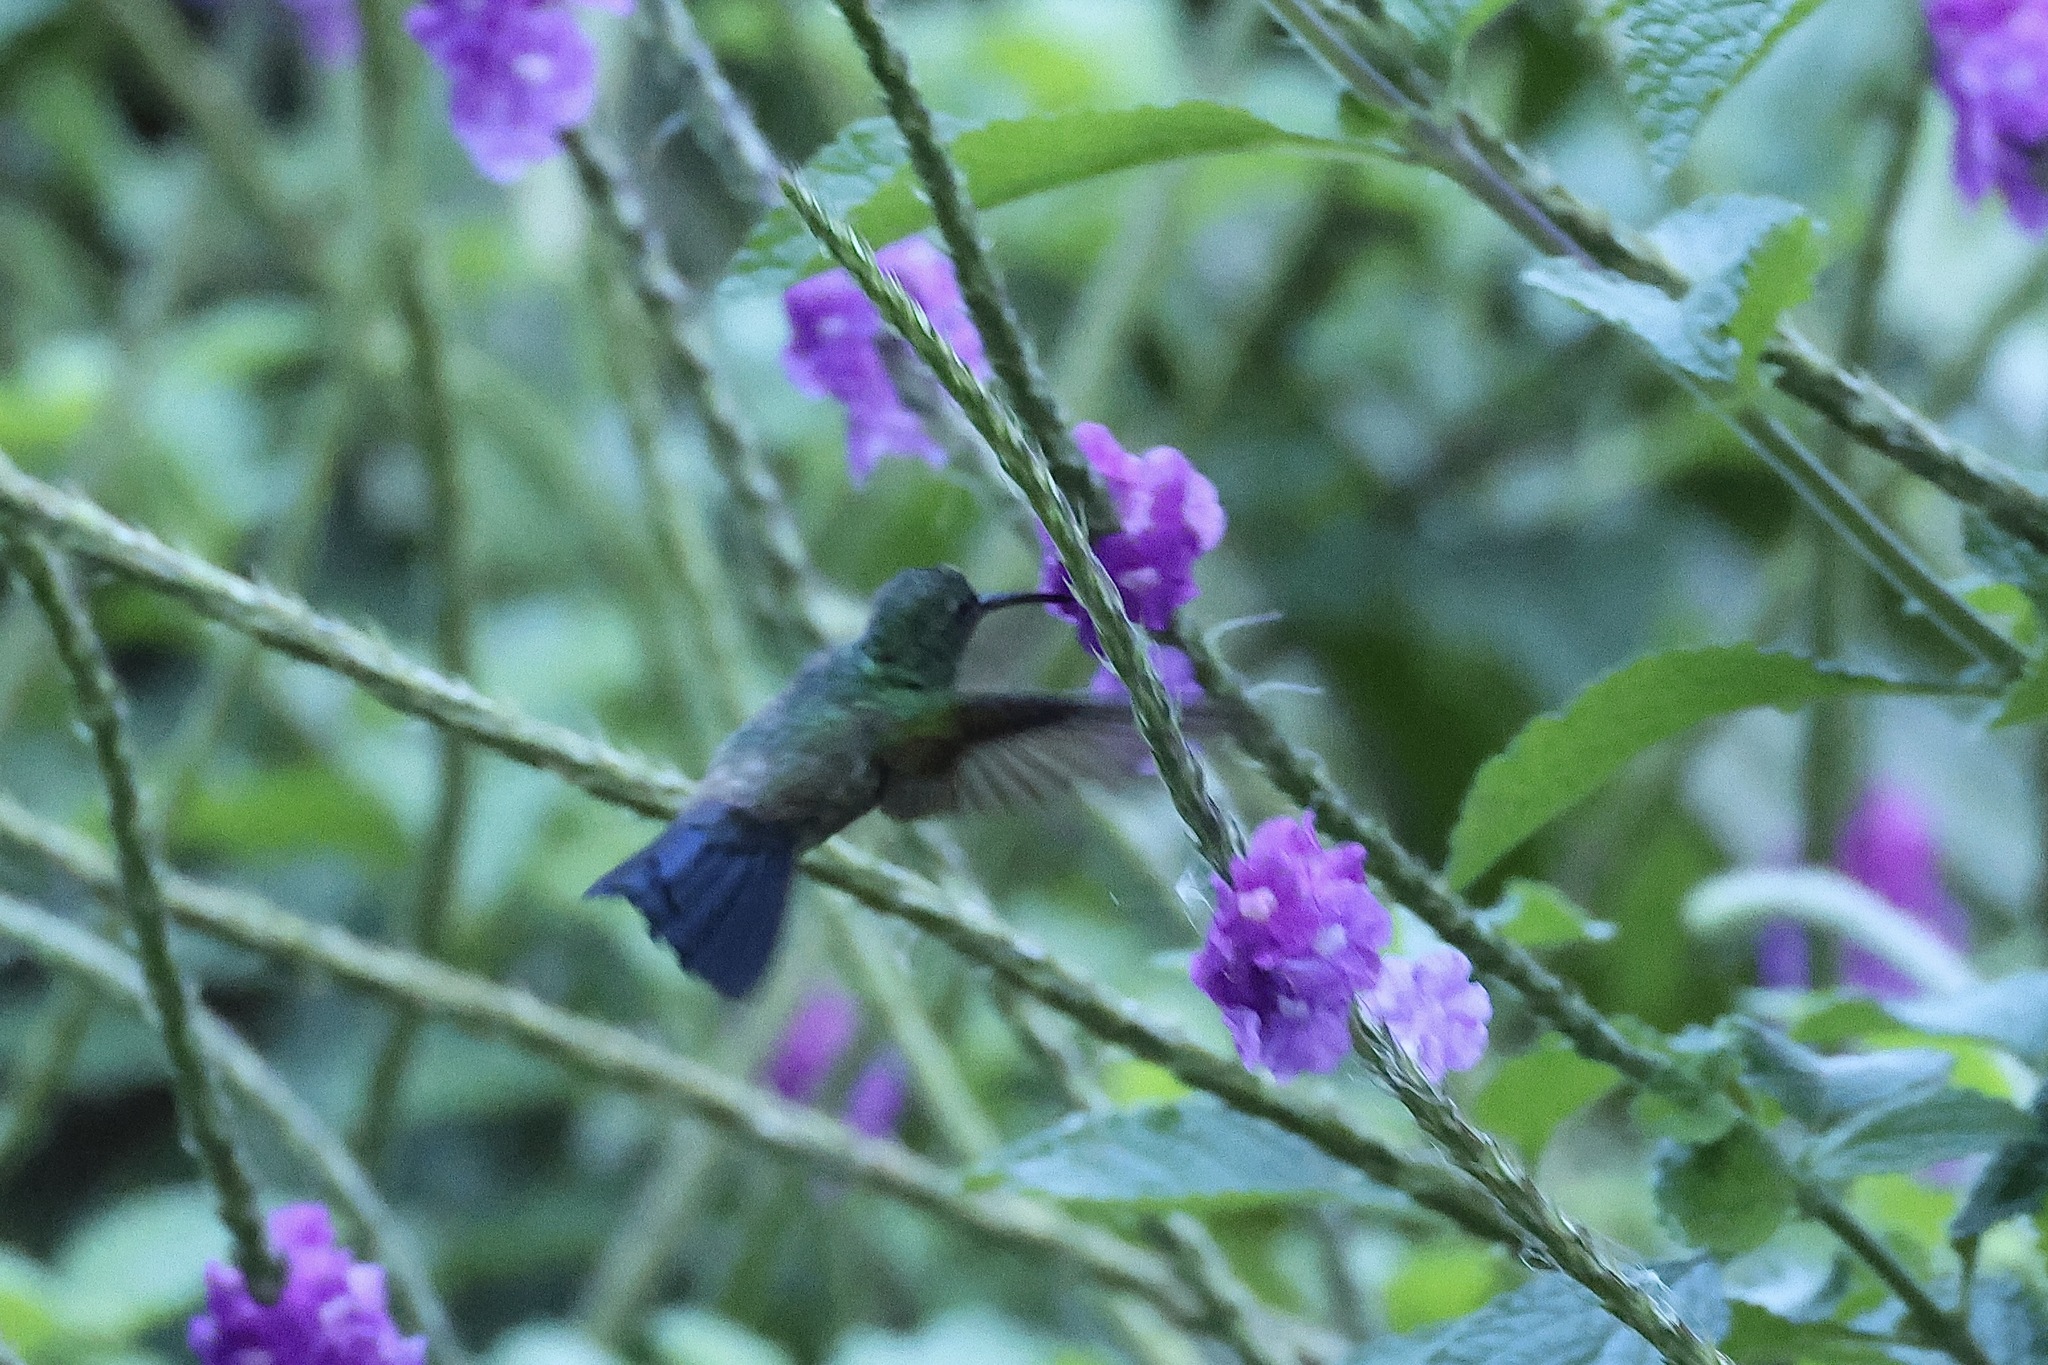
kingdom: Animalia
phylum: Chordata
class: Aves
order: Apodiformes
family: Trochilidae
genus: Saucerottia
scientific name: Saucerottia hoffmanni
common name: Blue-vented hummingbird
